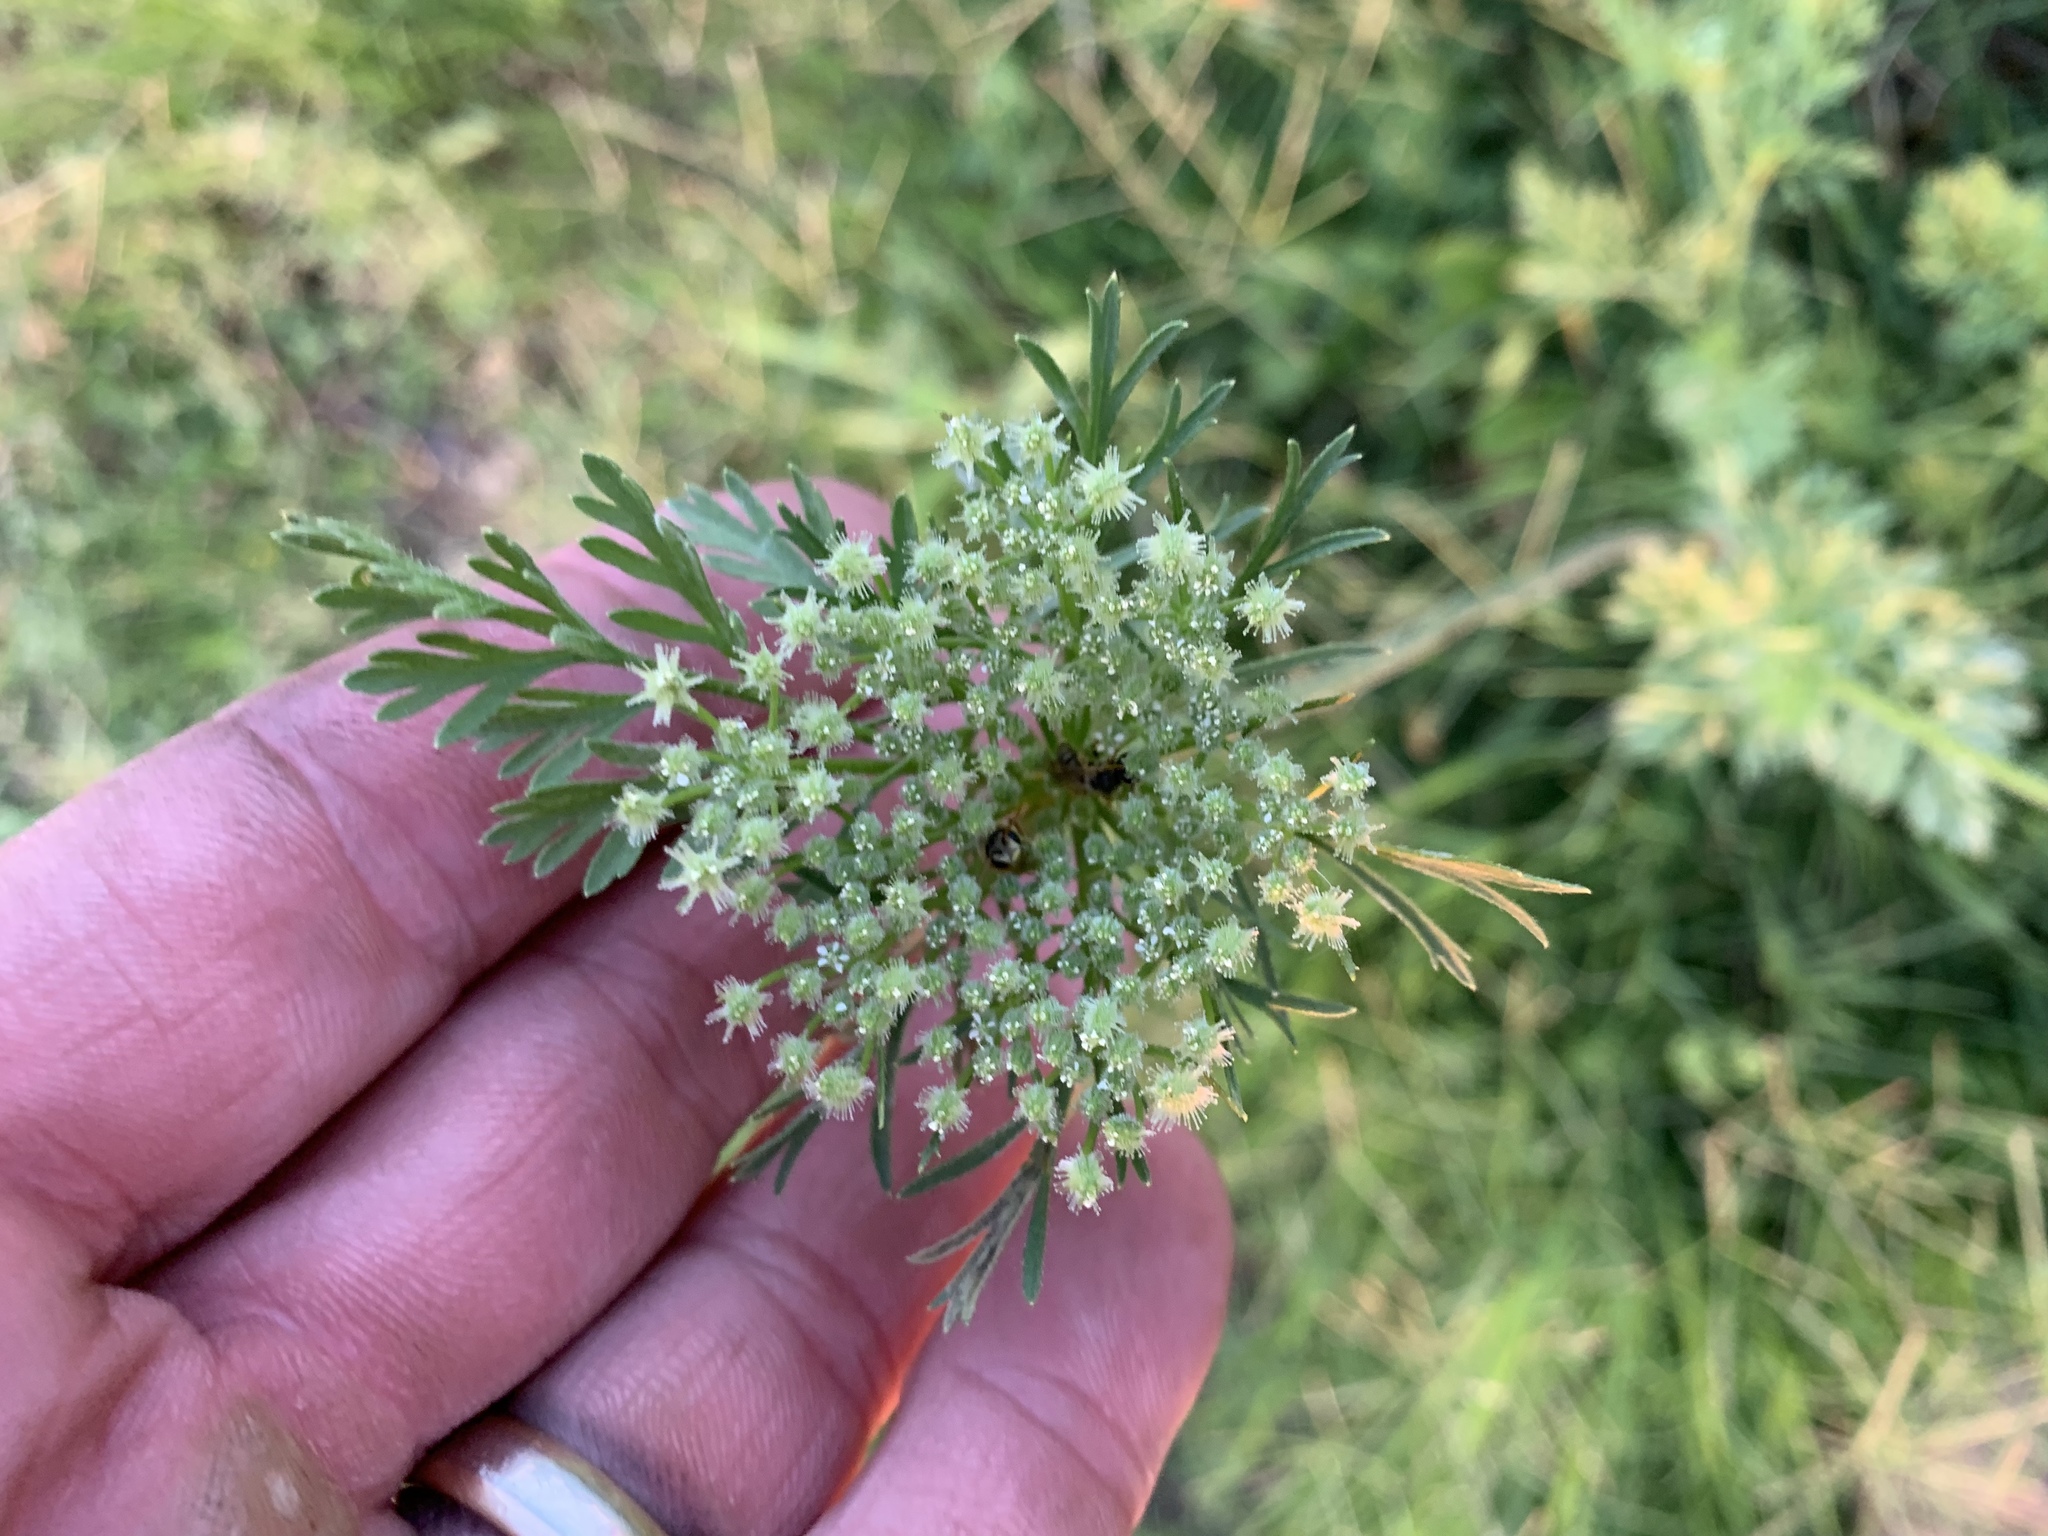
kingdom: Plantae
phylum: Tracheophyta
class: Magnoliopsida
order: Apiales
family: Apiaceae
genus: Daucus
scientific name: Daucus pusillus
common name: Southwest wild carrot
